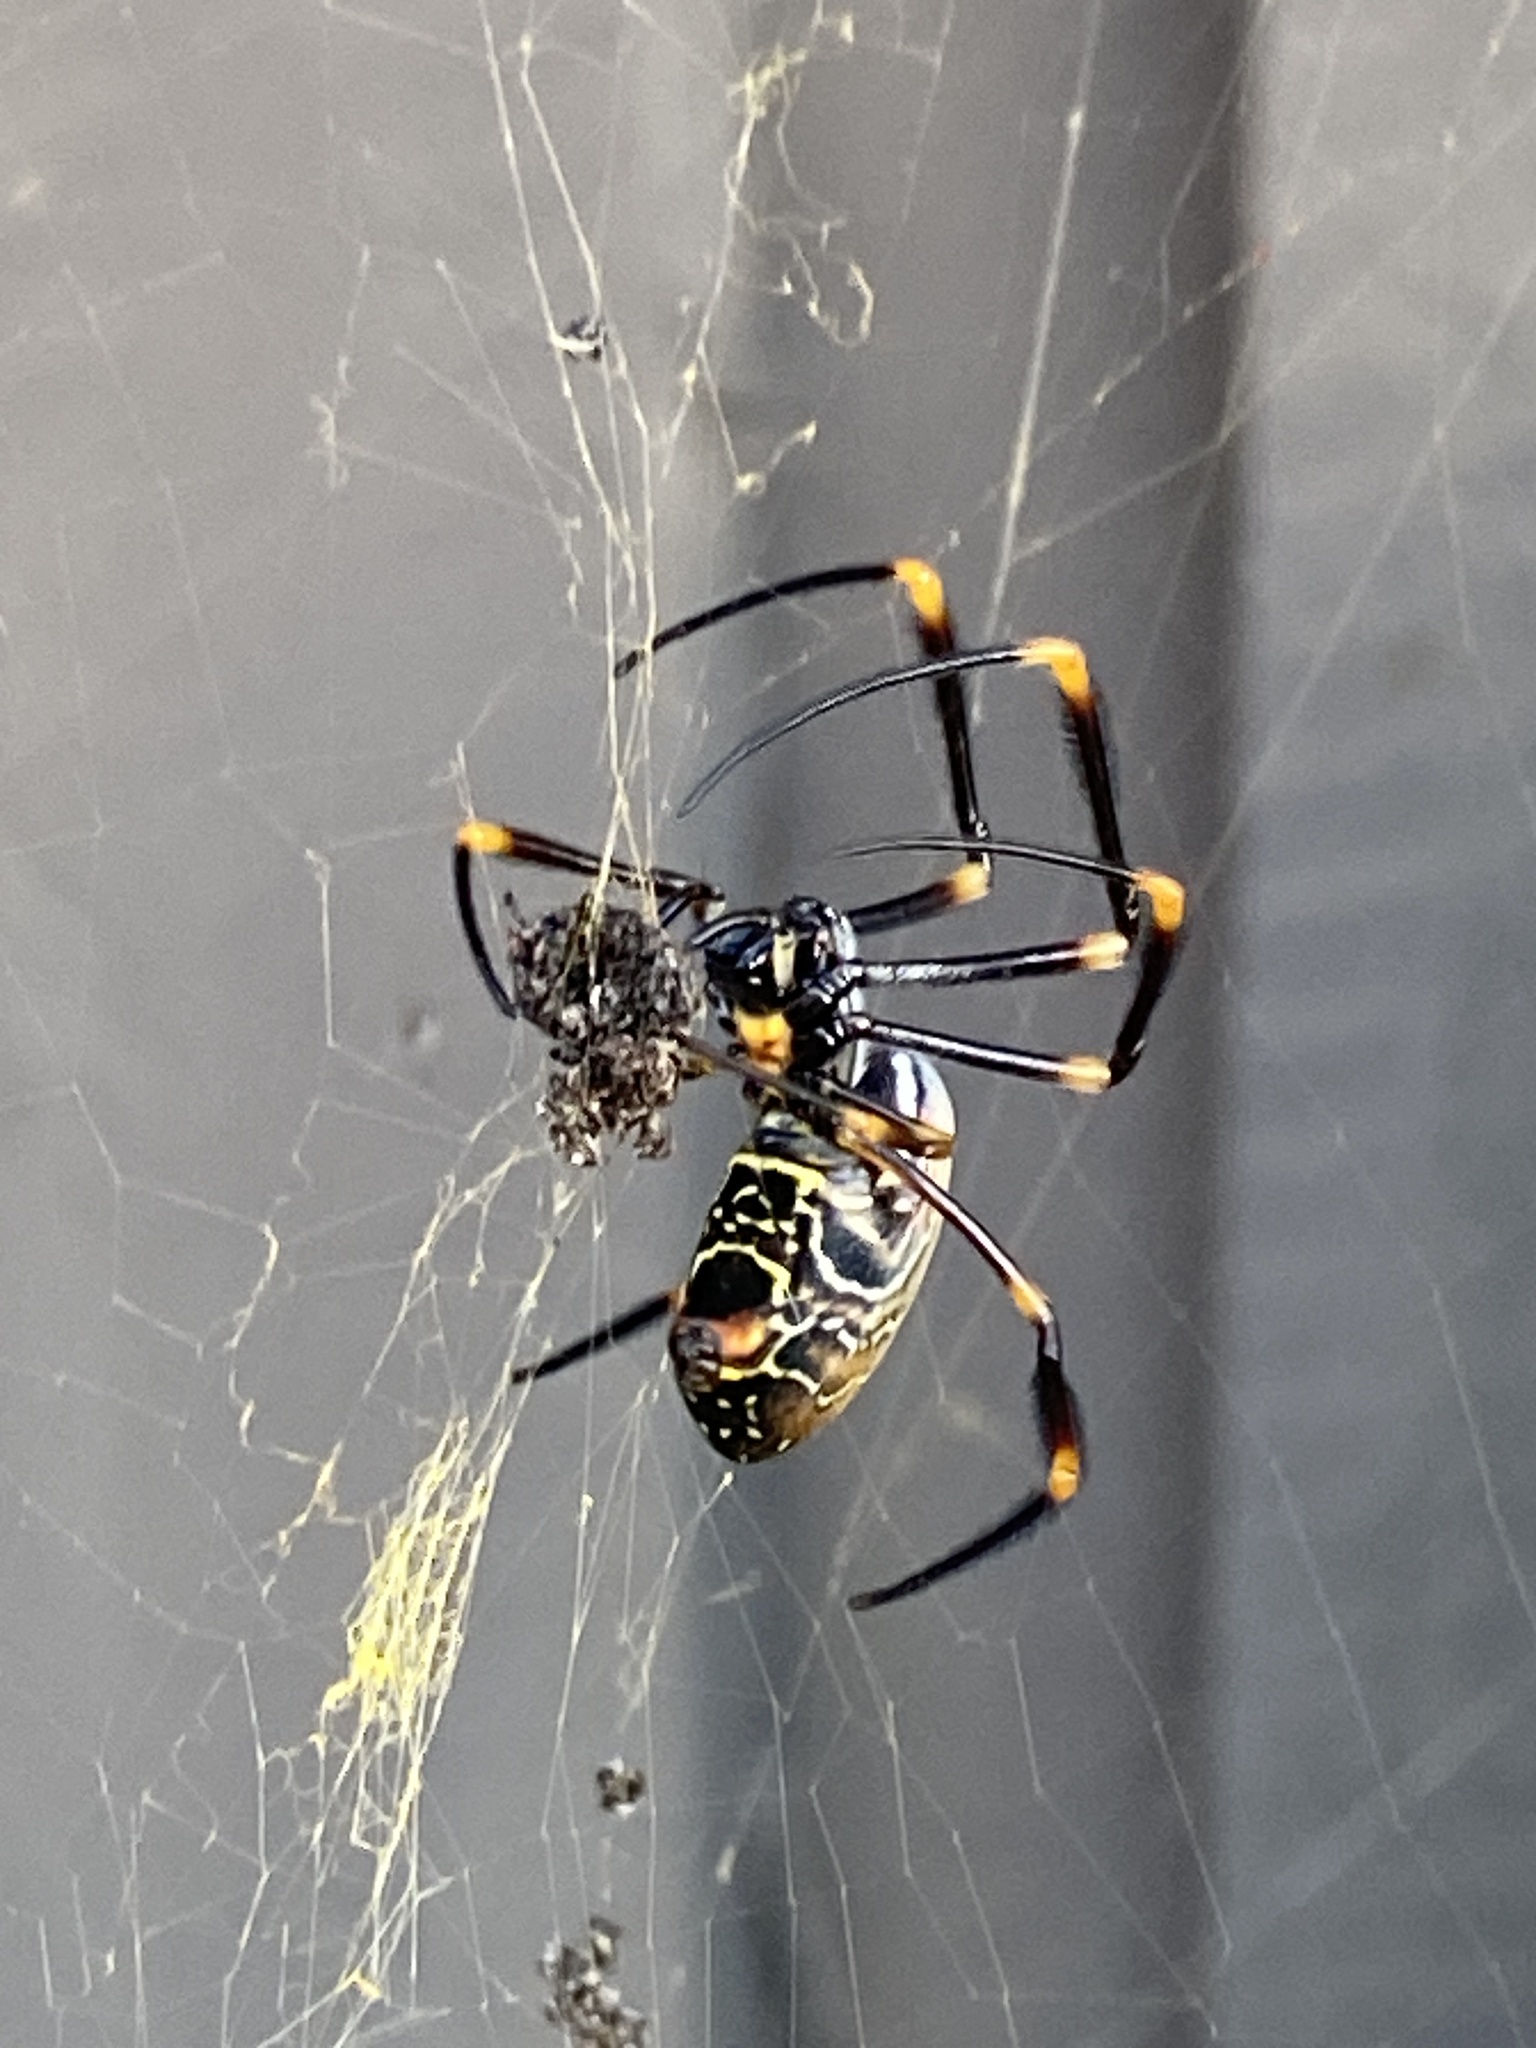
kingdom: Animalia
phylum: Arthropoda
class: Arachnida
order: Araneae
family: Araneidae
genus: Trichonephila
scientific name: Trichonephila plumipes
